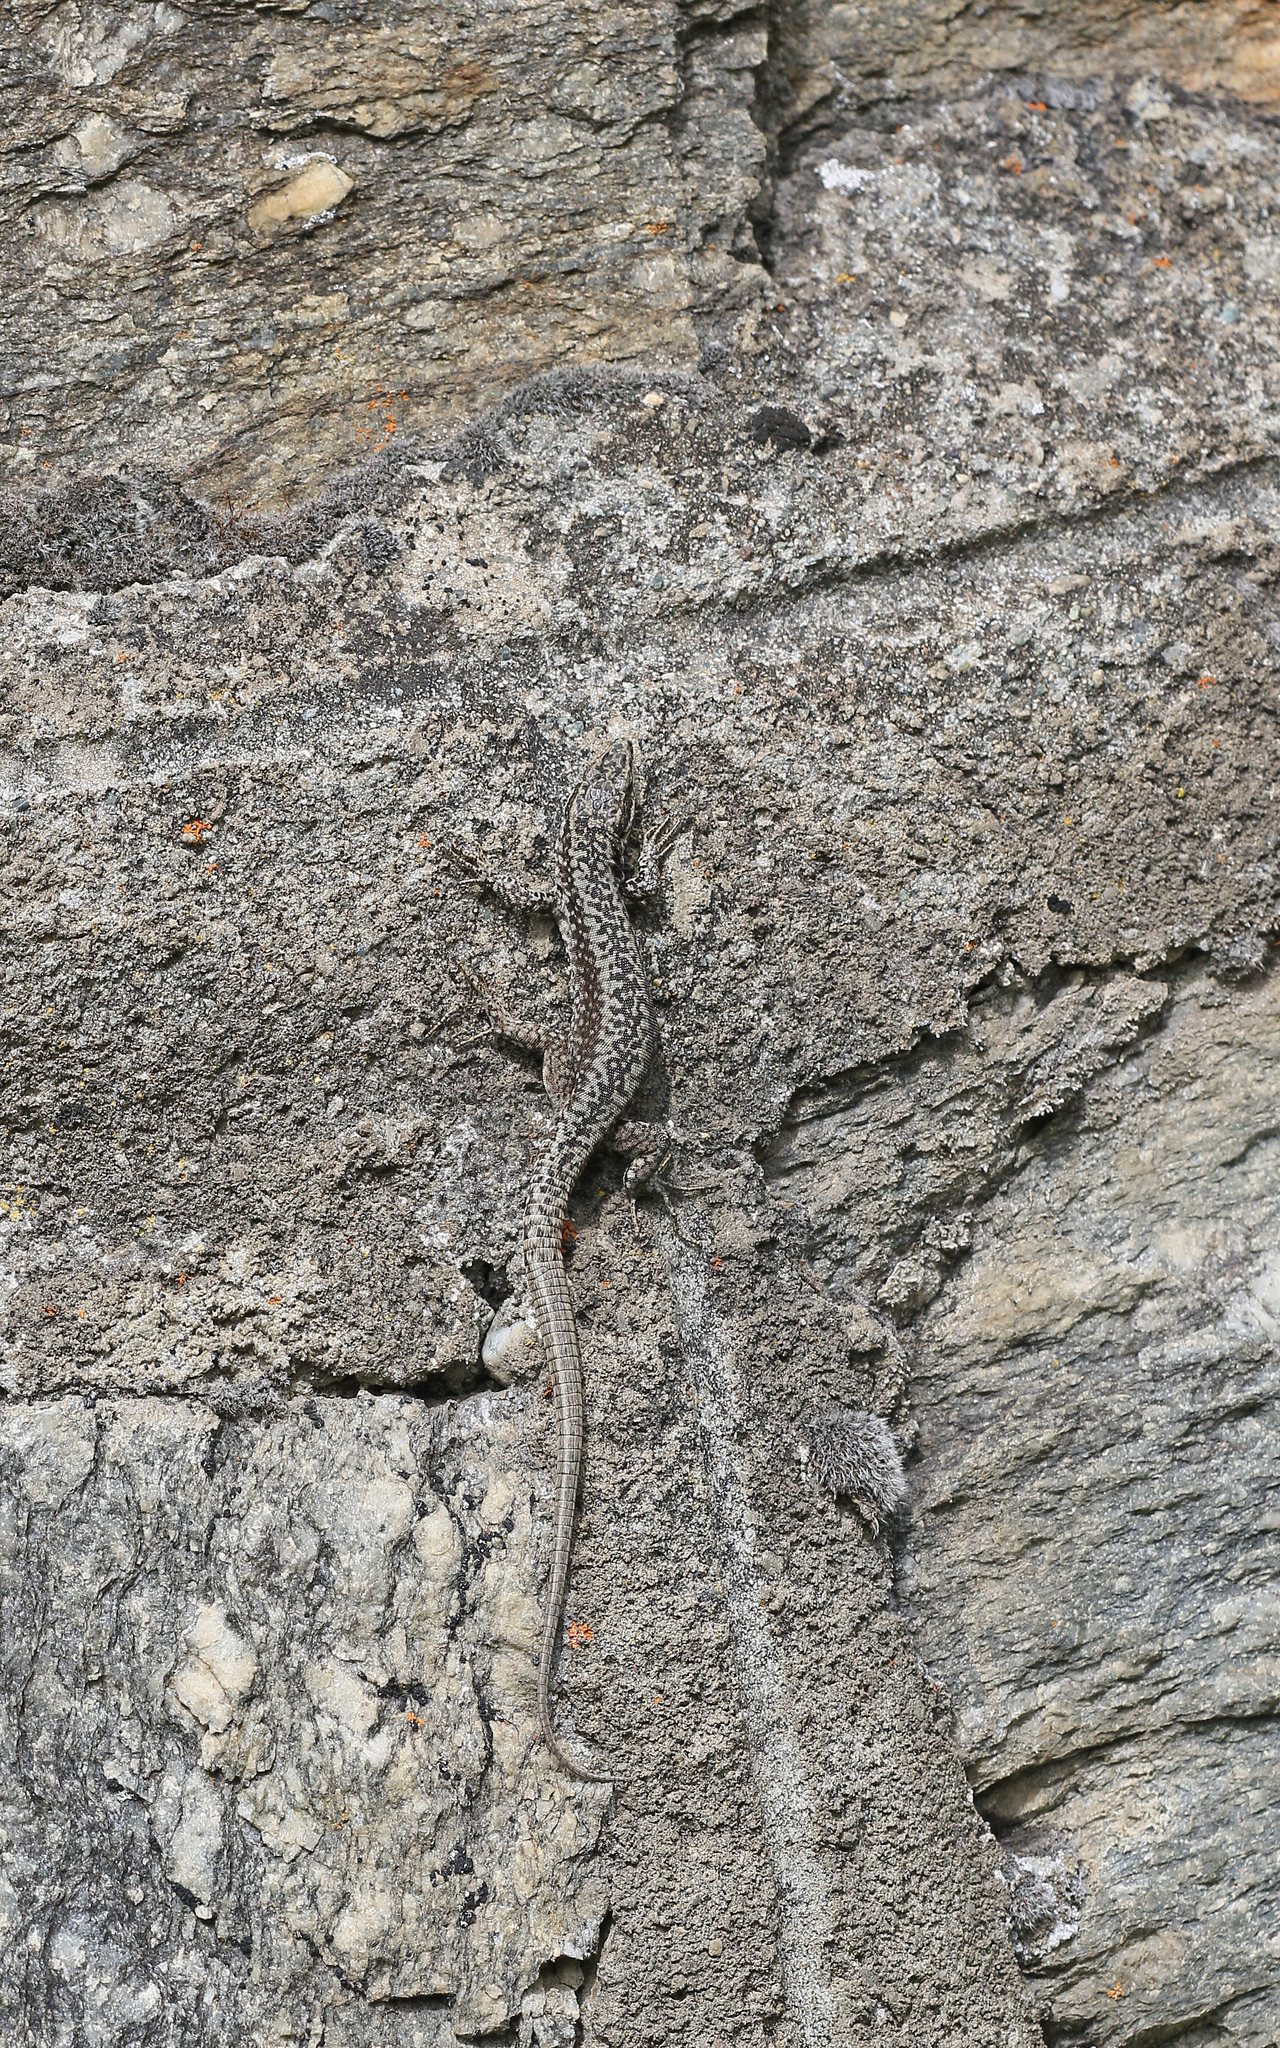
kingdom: Animalia
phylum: Chordata
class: Squamata
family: Lacertidae
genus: Podarcis
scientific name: Podarcis muralis
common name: Common wall lizard
